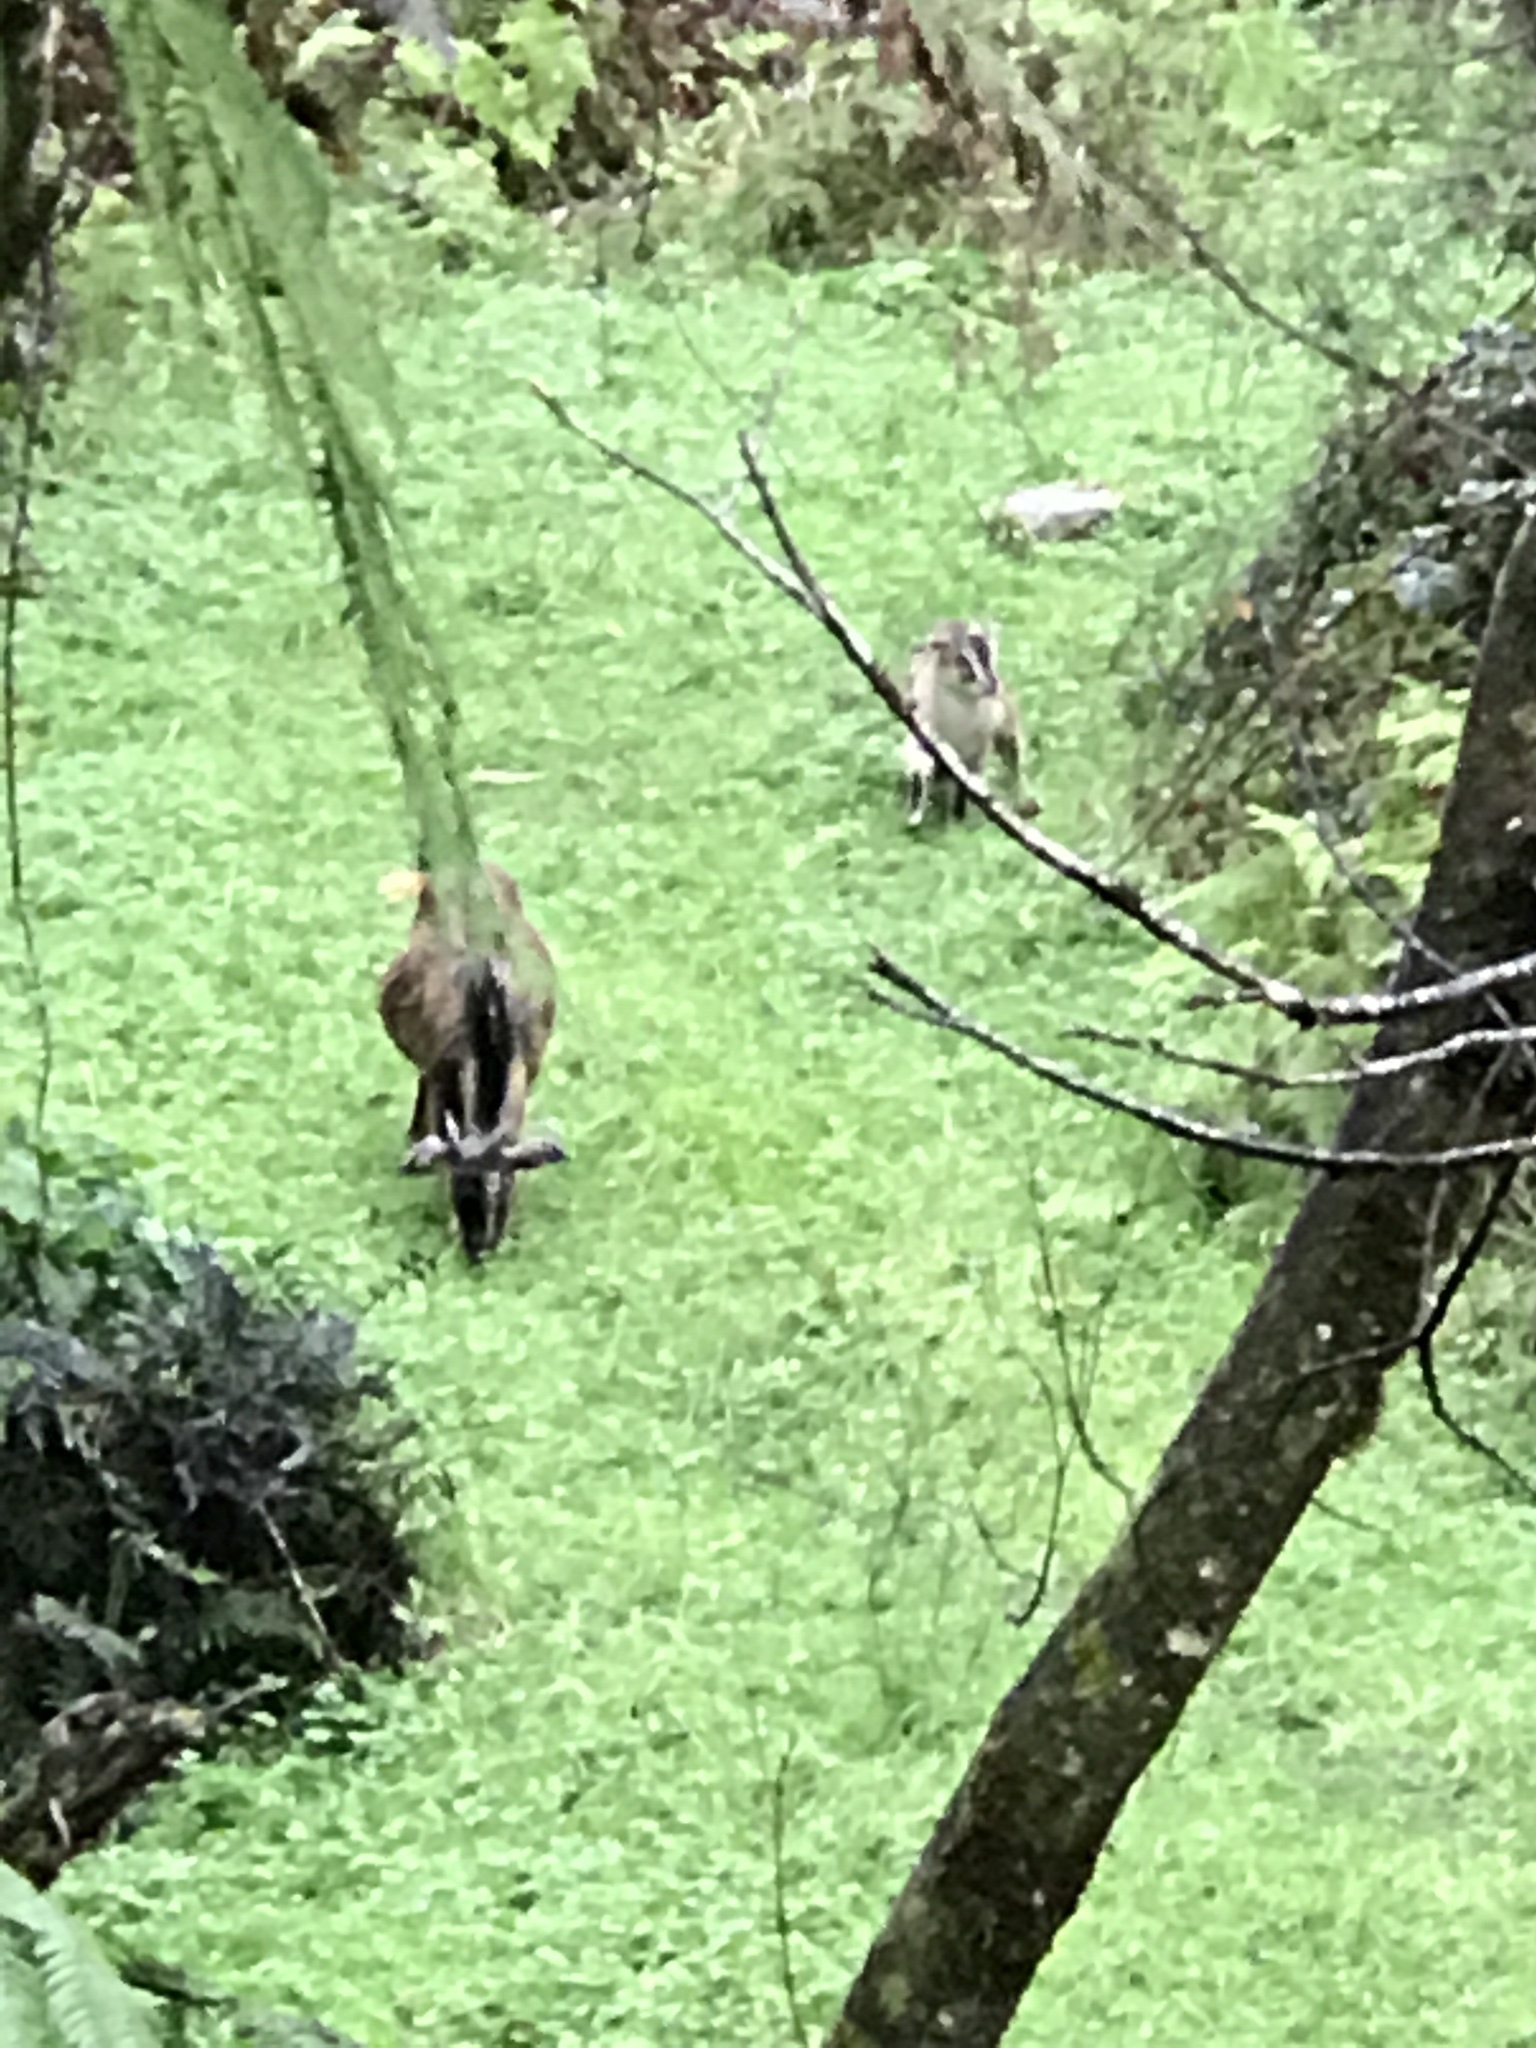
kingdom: Animalia
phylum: Chordata
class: Mammalia
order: Artiodactyla
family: Bovidae
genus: Capra
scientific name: Capra hircus
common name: Domestic goat
